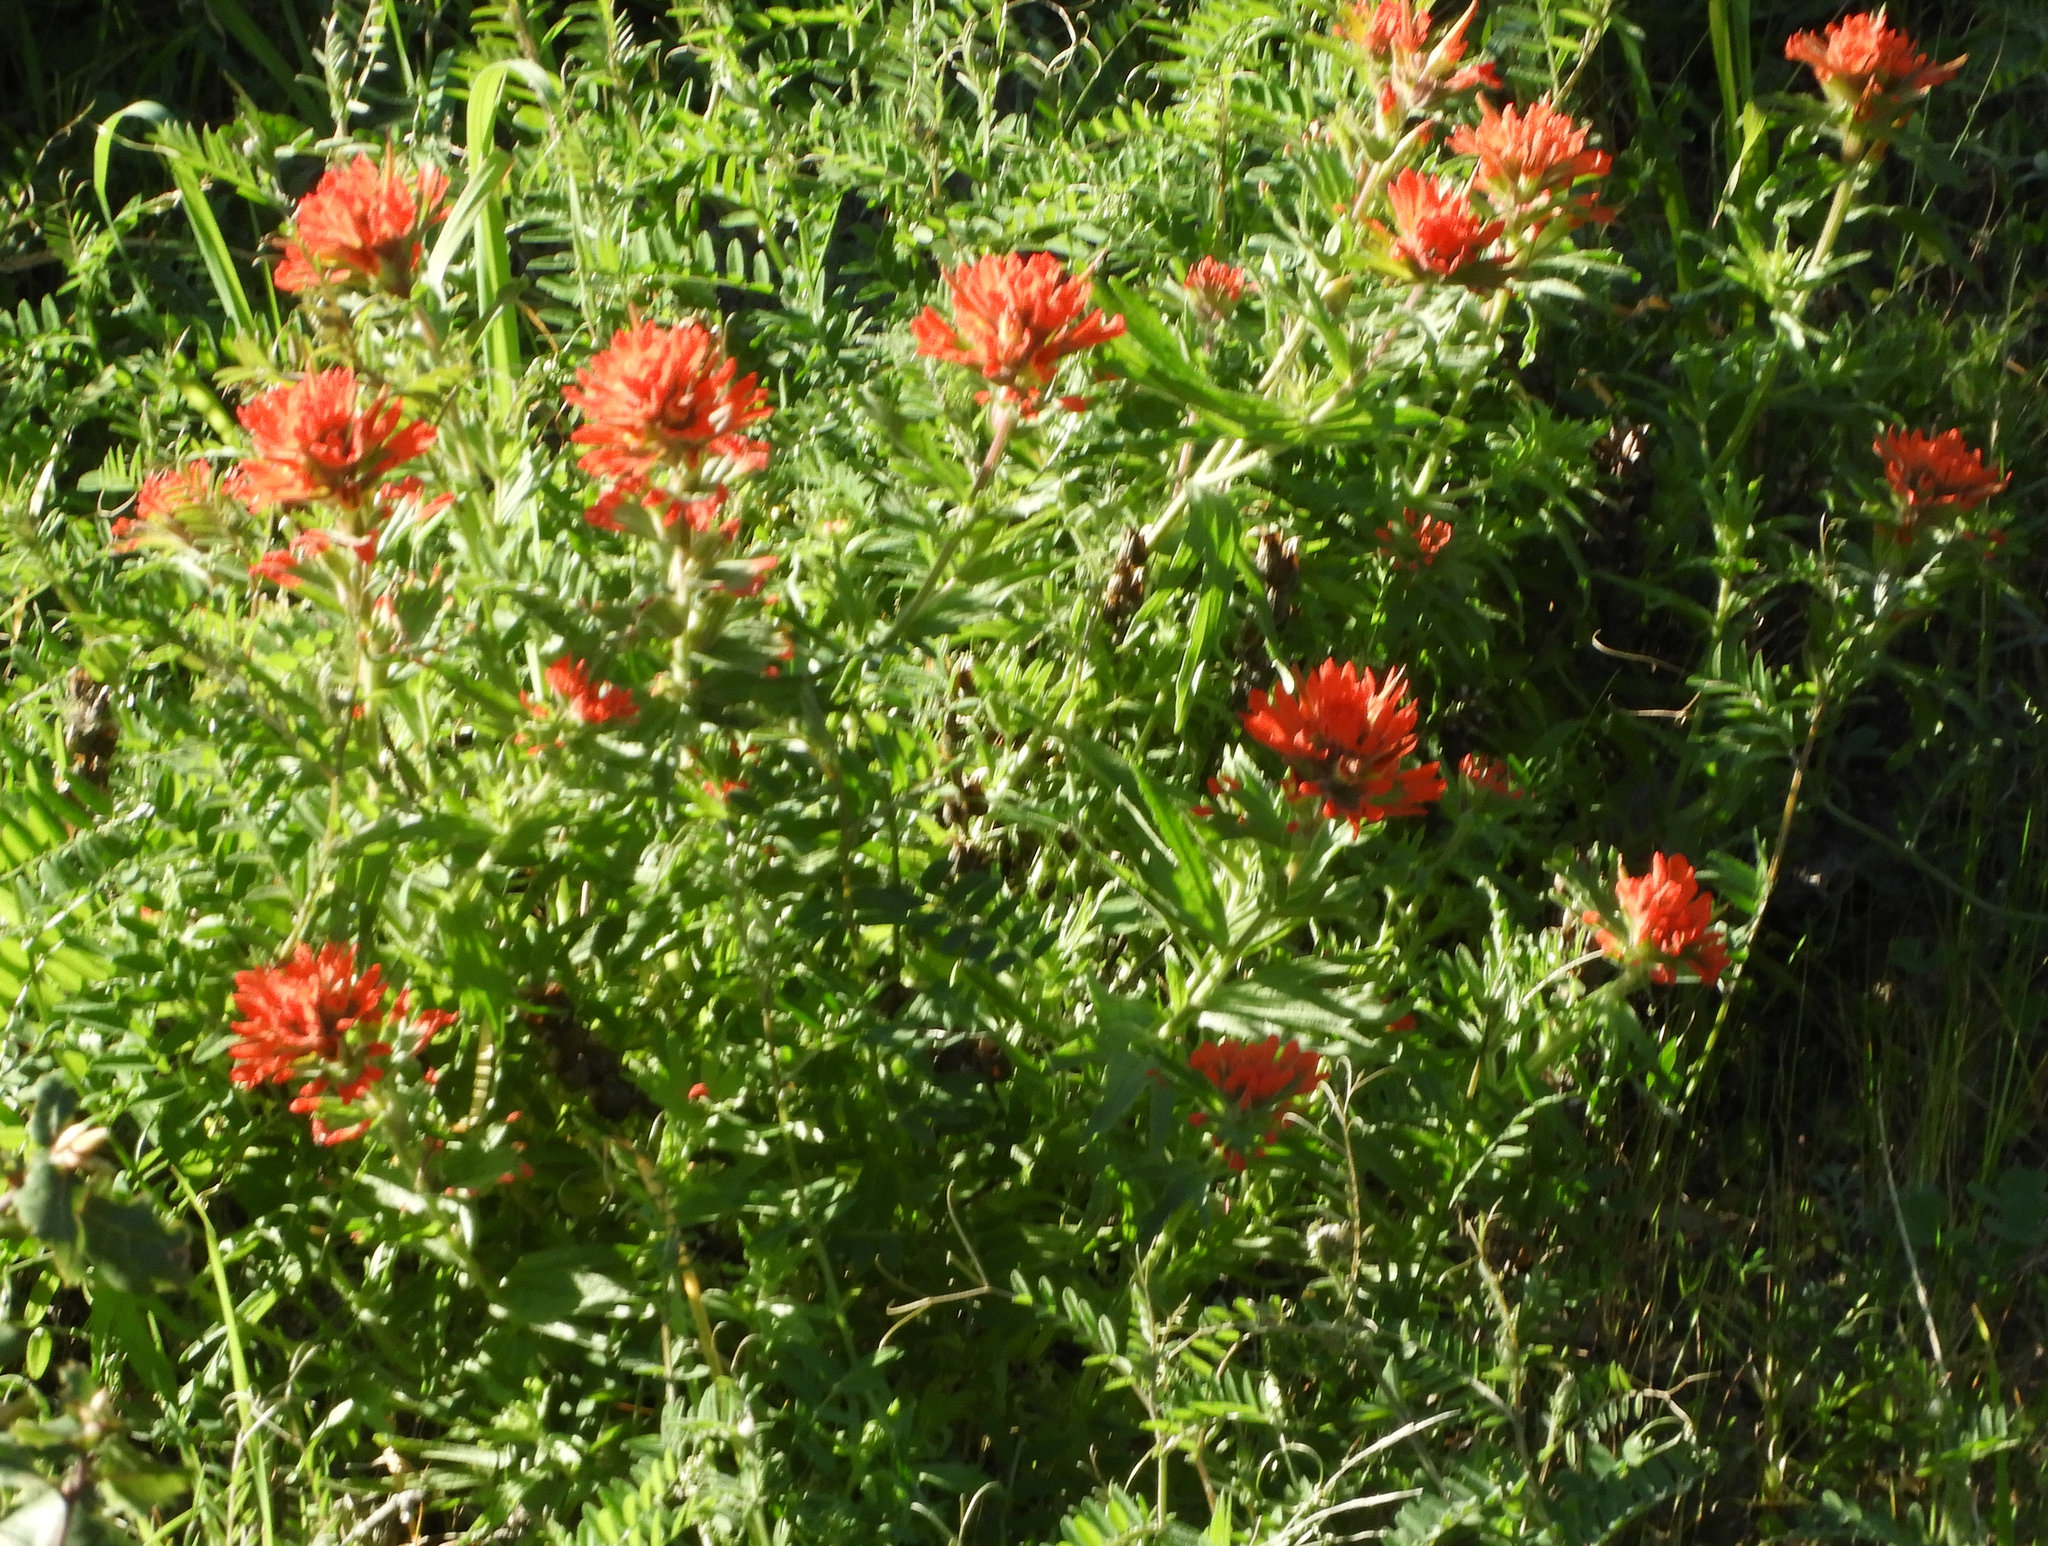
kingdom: Plantae
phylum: Tracheophyta
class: Magnoliopsida
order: Lamiales
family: Orobanchaceae
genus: Castilleja
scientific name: Castilleja foliolosa
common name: Woolly indian paintbrush
